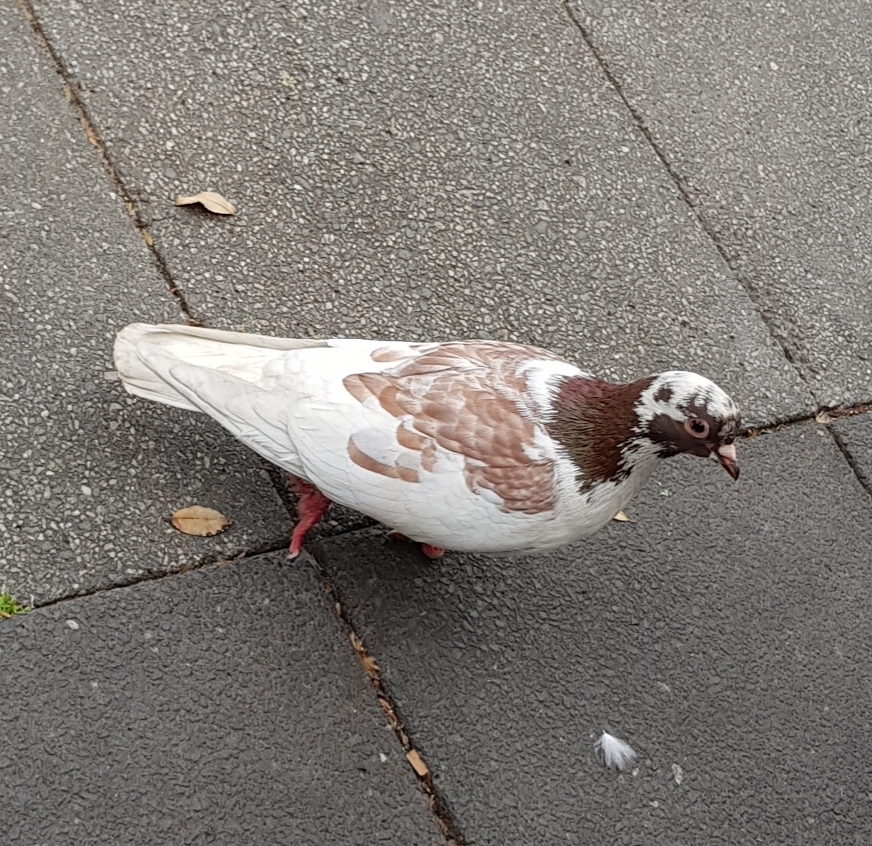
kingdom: Animalia
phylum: Chordata
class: Aves
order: Columbiformes
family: Columbidae
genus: Columba
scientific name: Columba livia
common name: Rock pigeon
